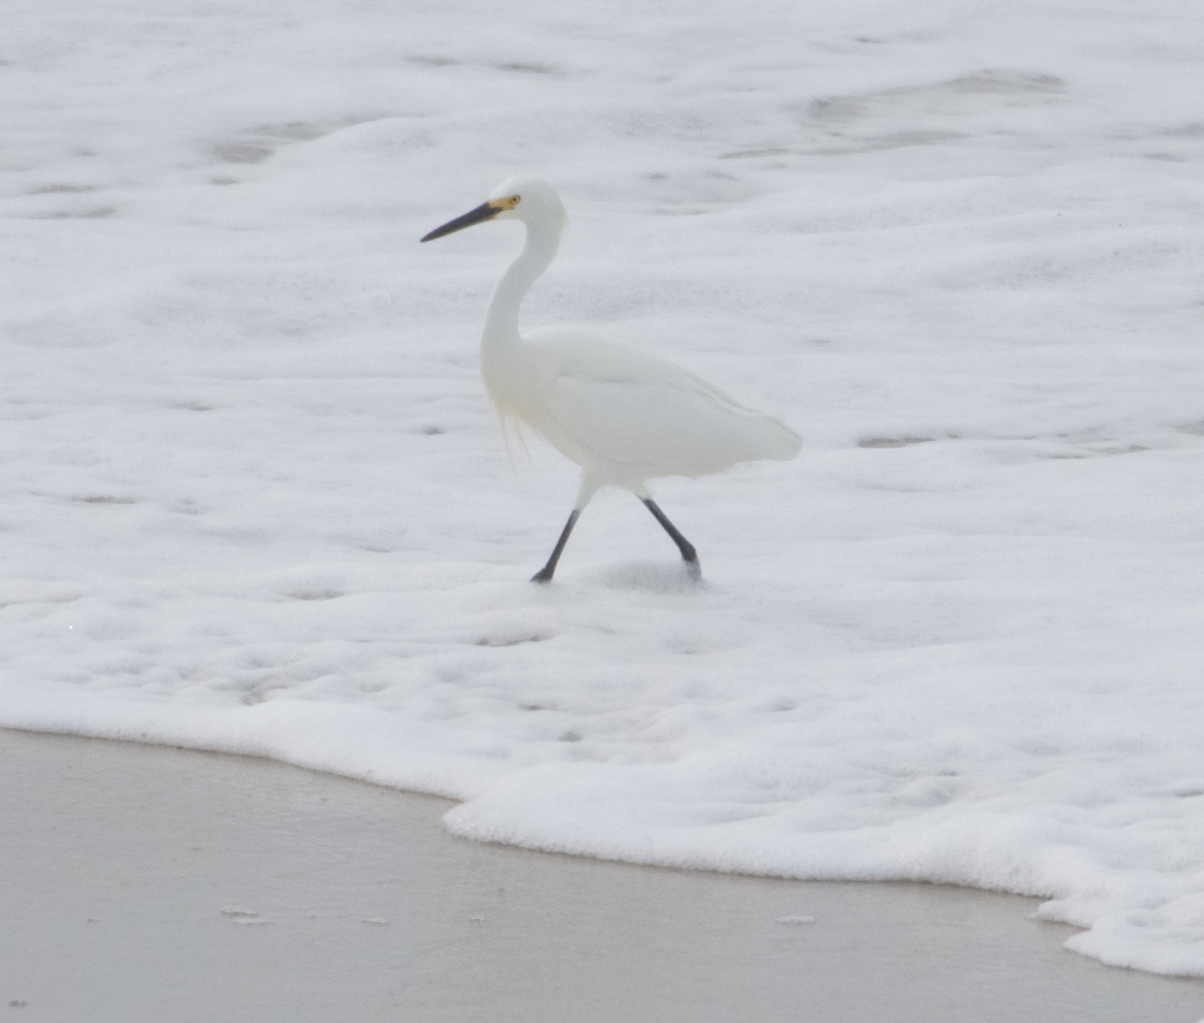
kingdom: Animalia
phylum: Chordata
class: Aves
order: Pelecaniformes
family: Ardeidae
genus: Egretta
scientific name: Egretta thula
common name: Snowy egret
